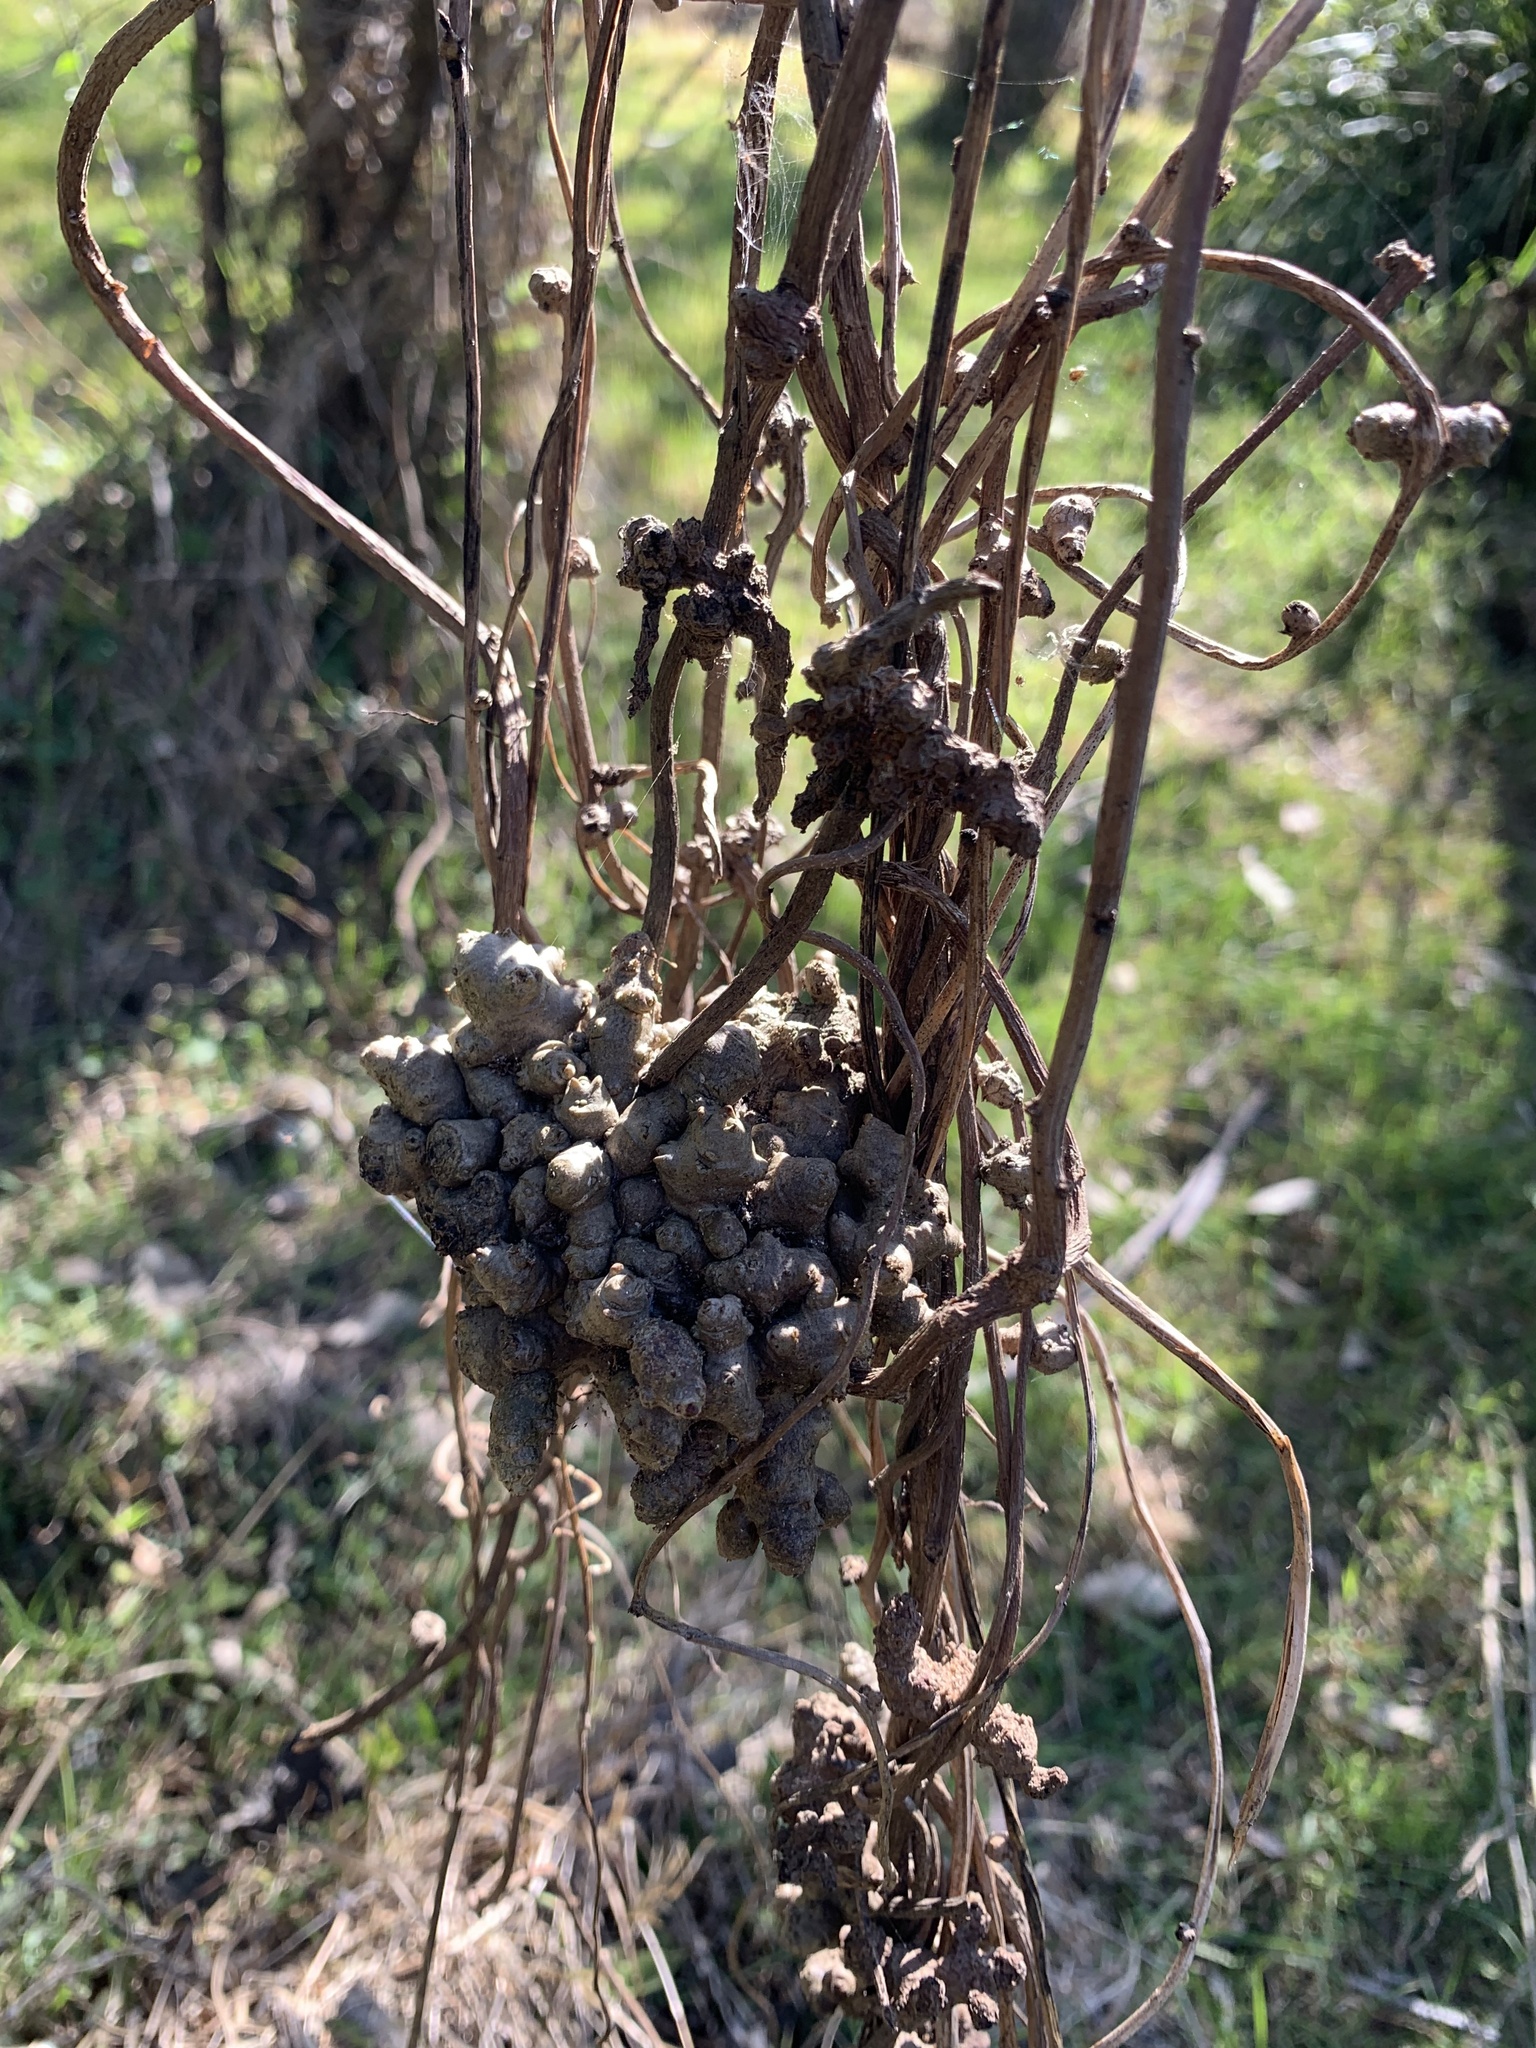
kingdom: Plantae
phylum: Tracheophyta
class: Magnoliopsida
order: Caryophyllales
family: Basellaceae
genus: Anredera
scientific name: Anredera cordifolia
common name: Heartleaf madeiravine
